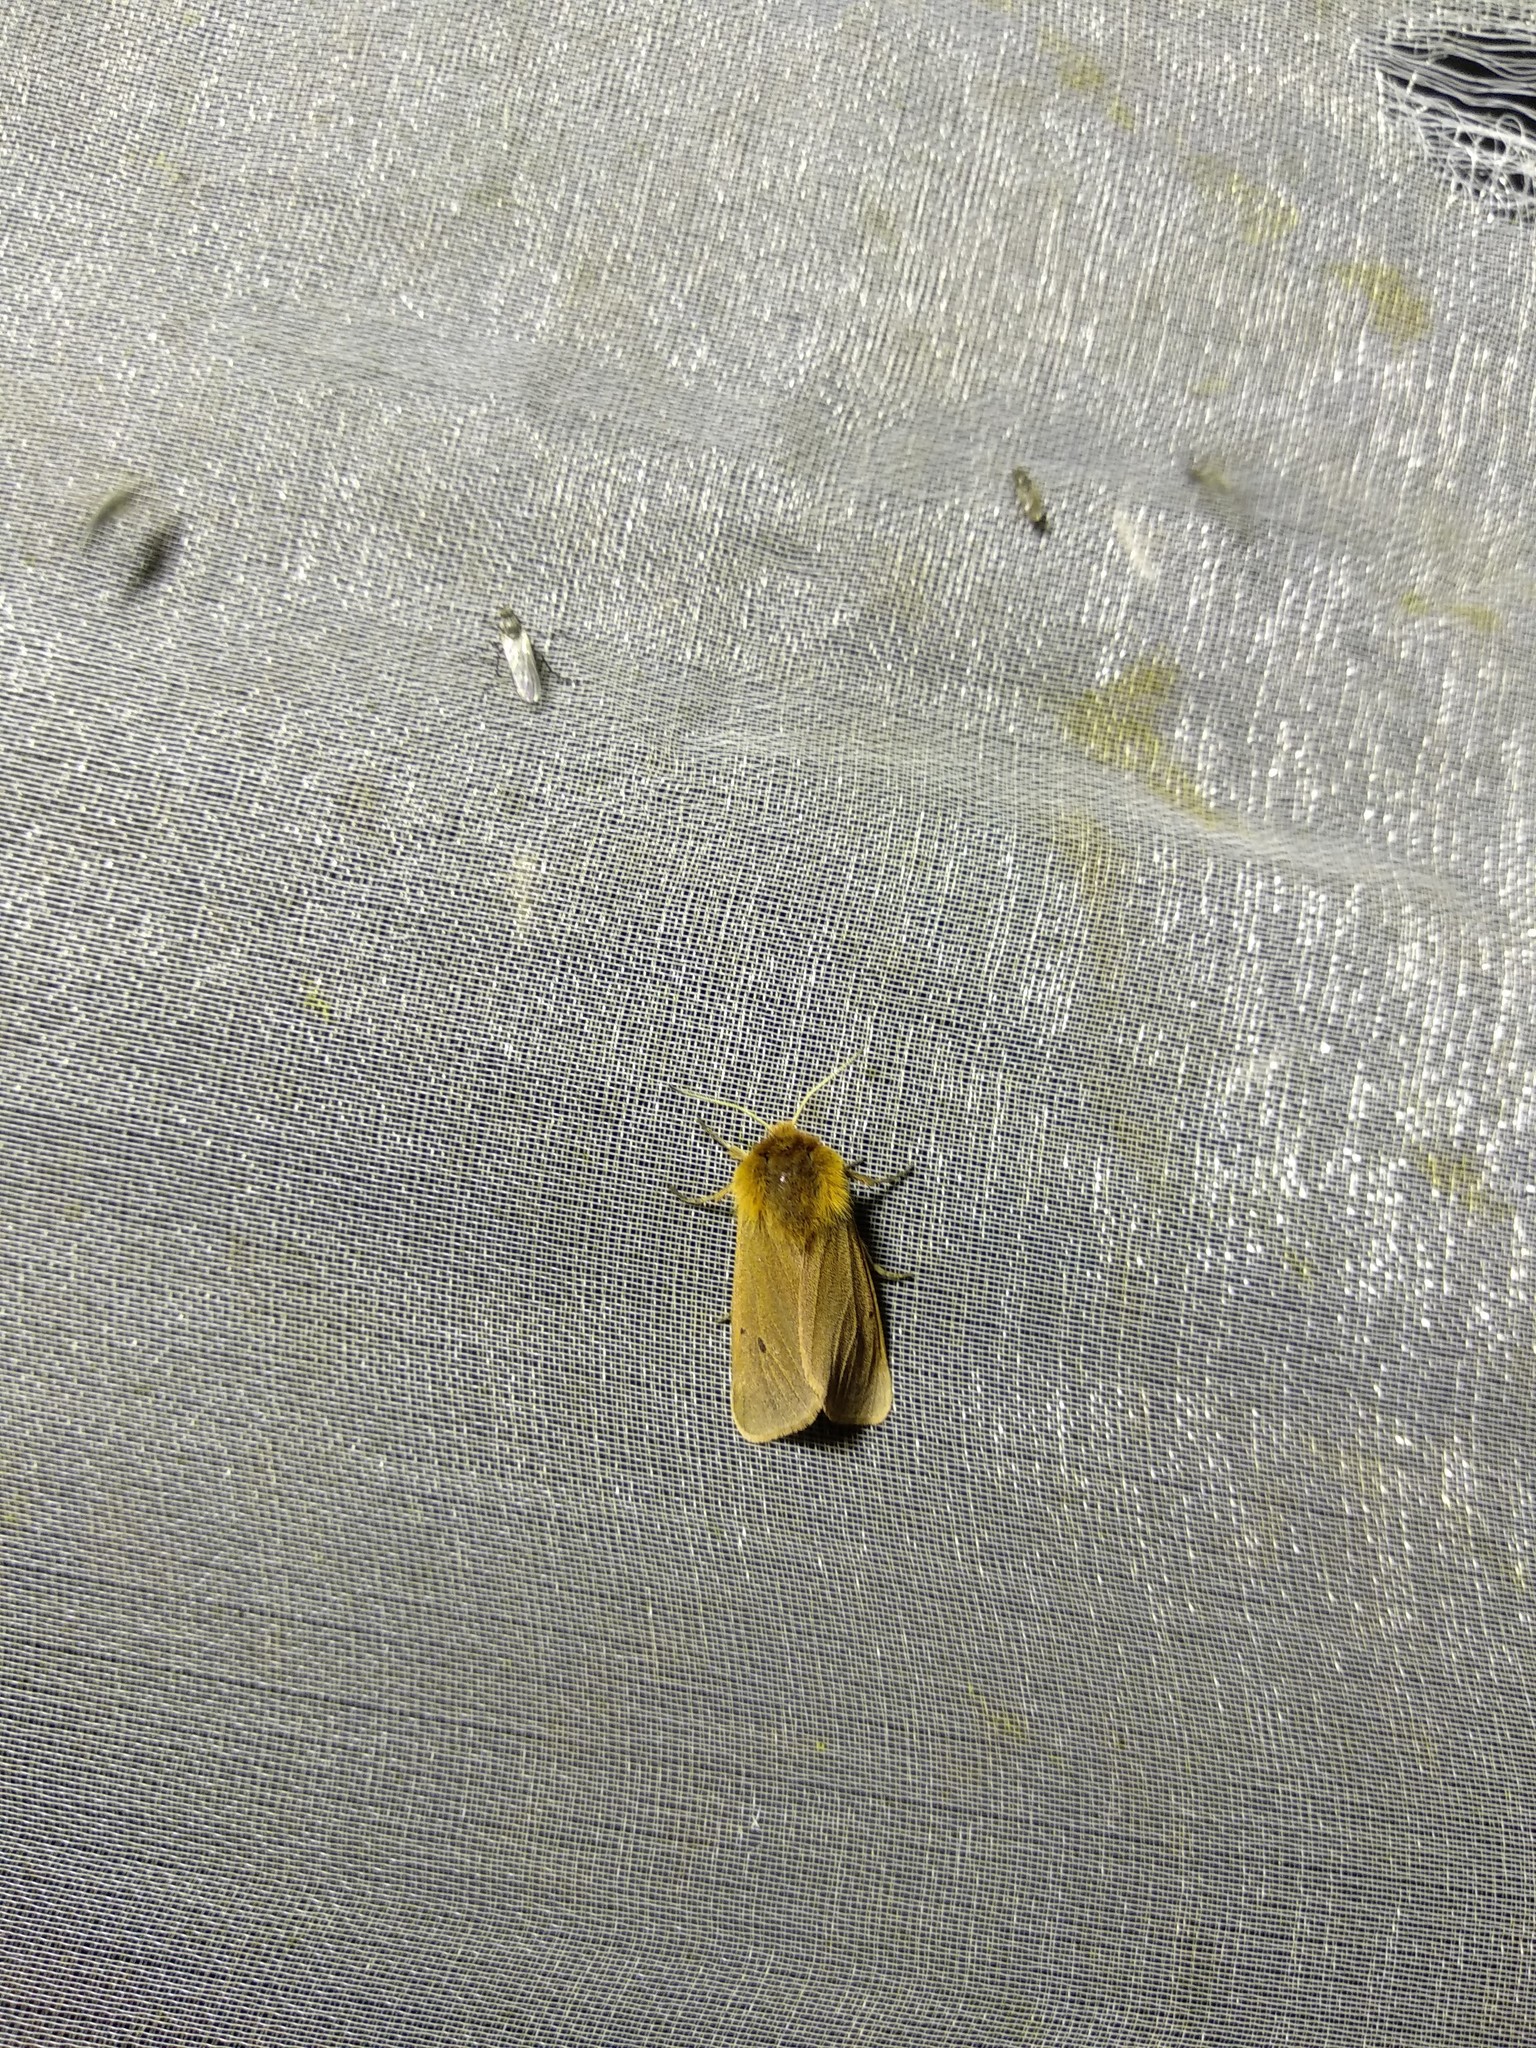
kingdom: Animalia
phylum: Arthropoda
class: Insecta
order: Lepidoptera
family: Erebidae
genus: Phragmatobia
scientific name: Phragmatobia fuliginosa
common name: Ruby tiger
